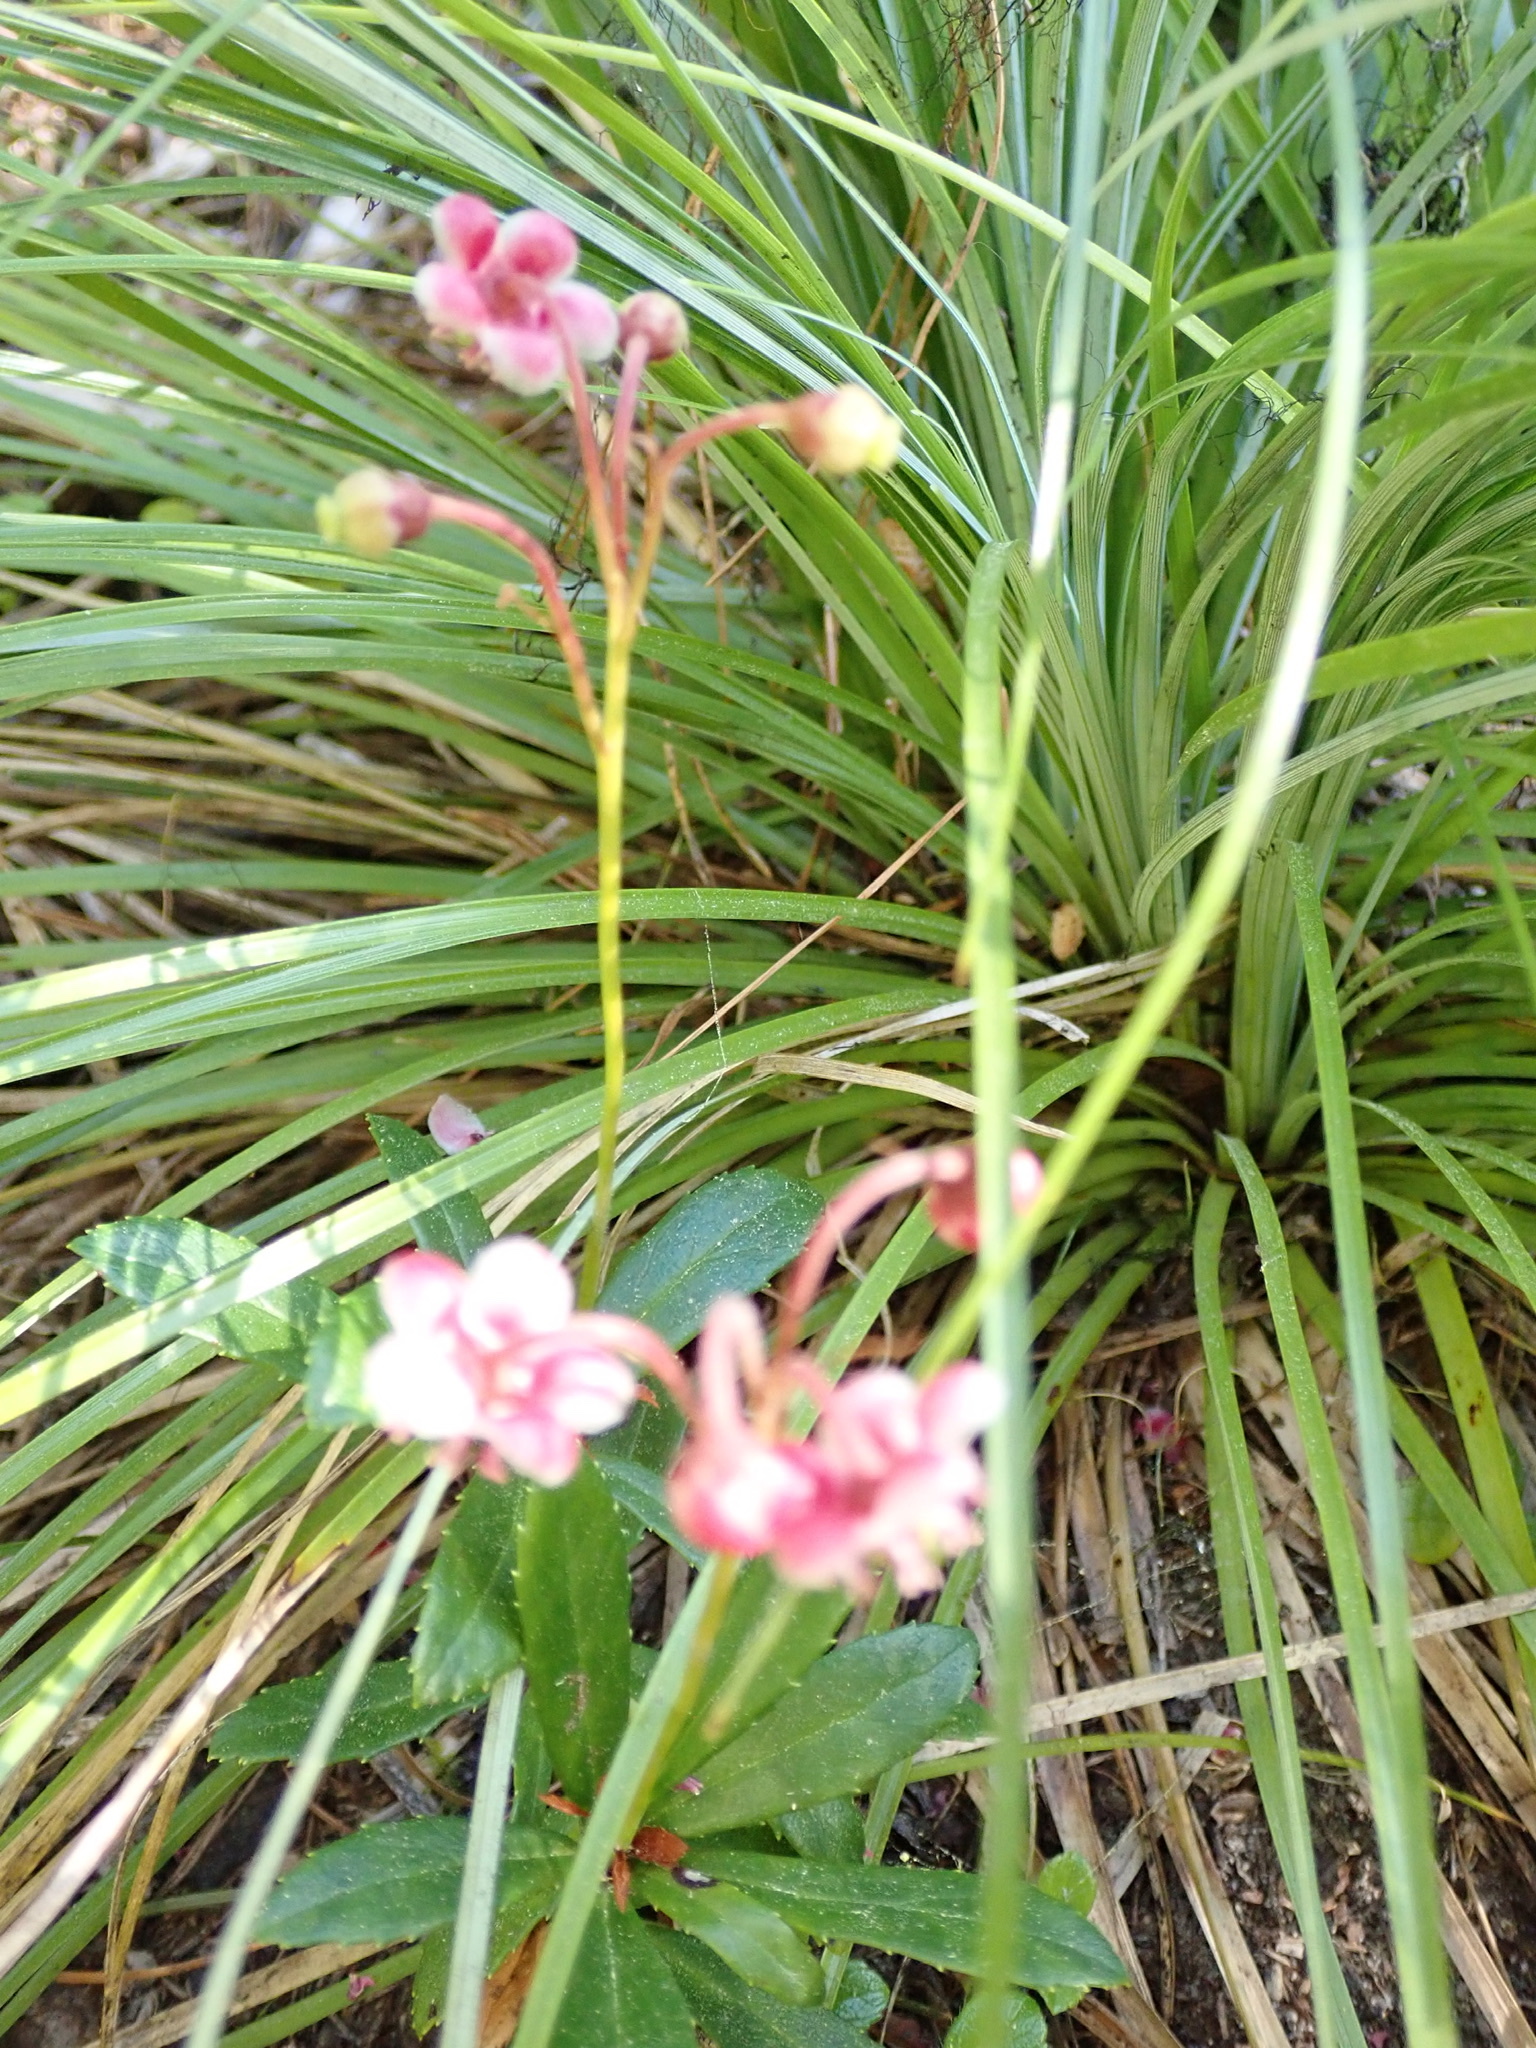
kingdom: Plantae
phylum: Tracheophyta
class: Magnoliopsida
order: Ericales
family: Ericaceae
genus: Chimaphila
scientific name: Chimaphila umbellata
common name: Pipsissewa
